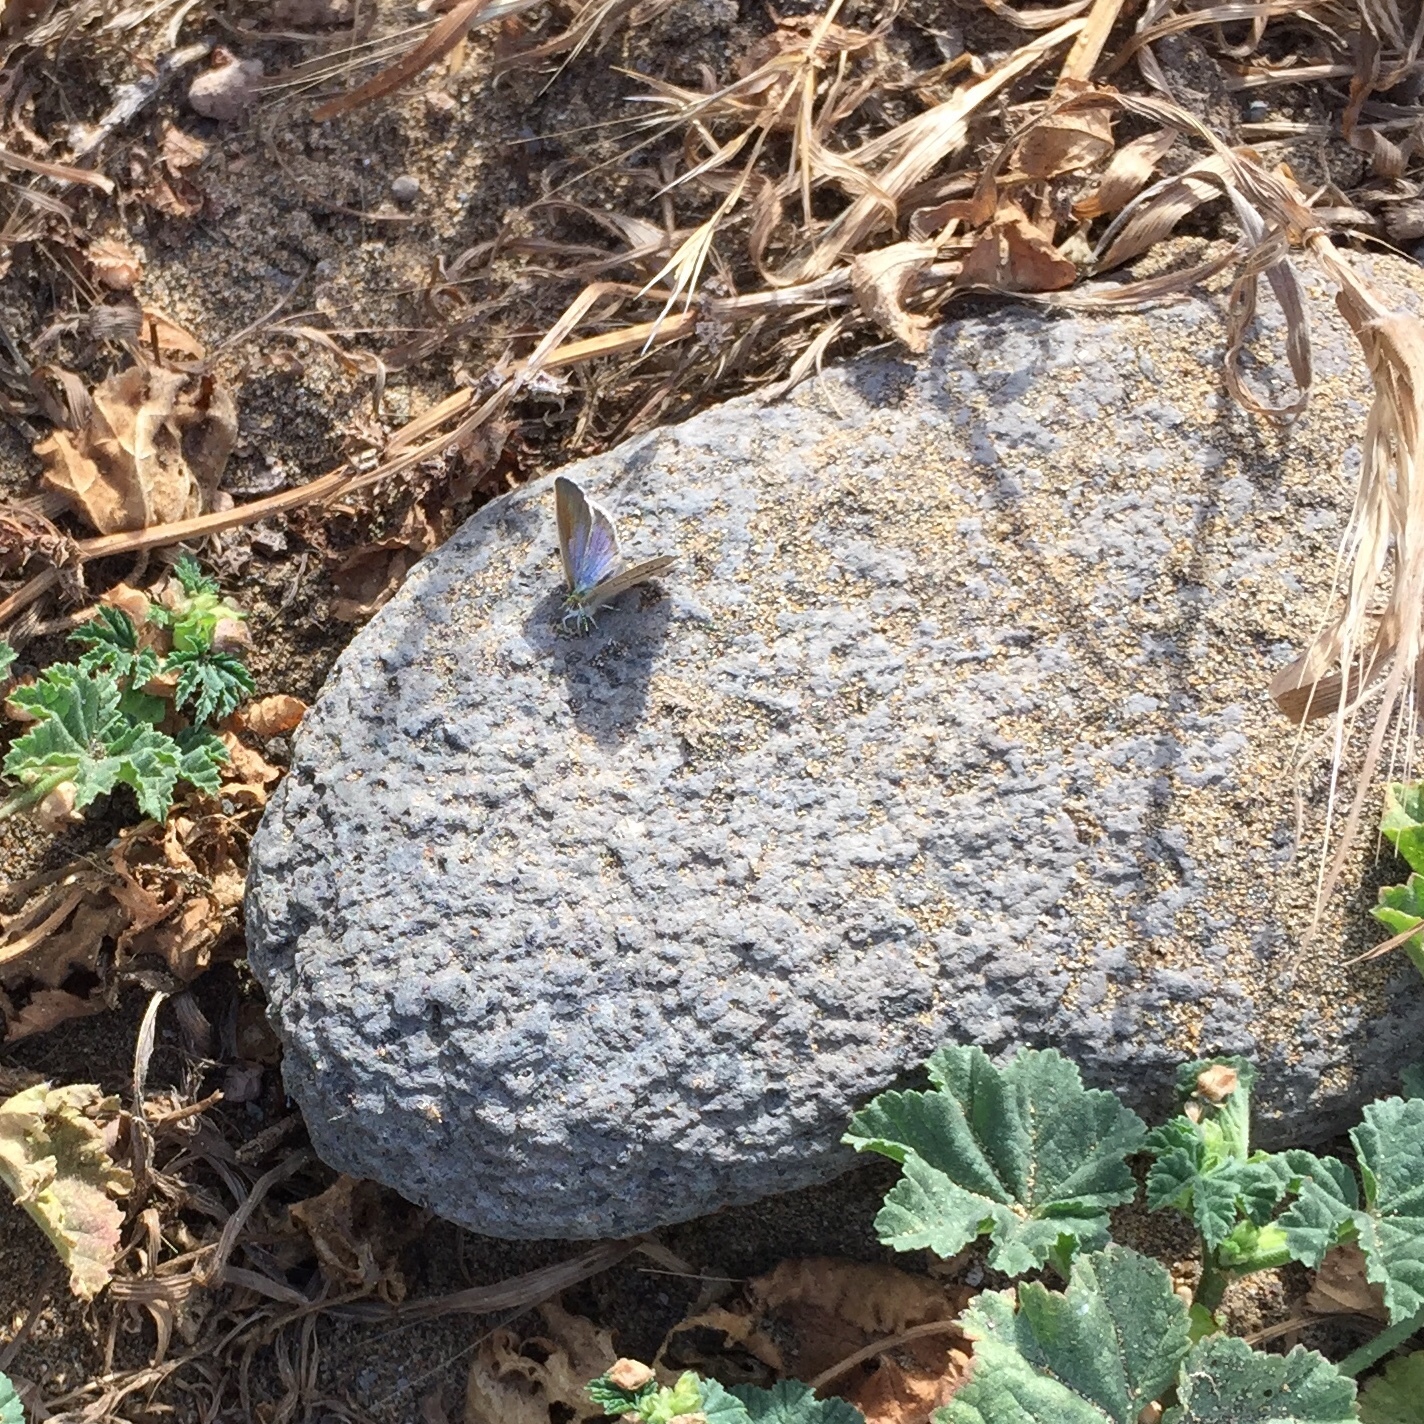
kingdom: Animalia
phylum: Arthropoda
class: Insecta
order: Lepidoptera
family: Lycaenidae
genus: Zizeeria
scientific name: Zizeeria knysna
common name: African grass blue
